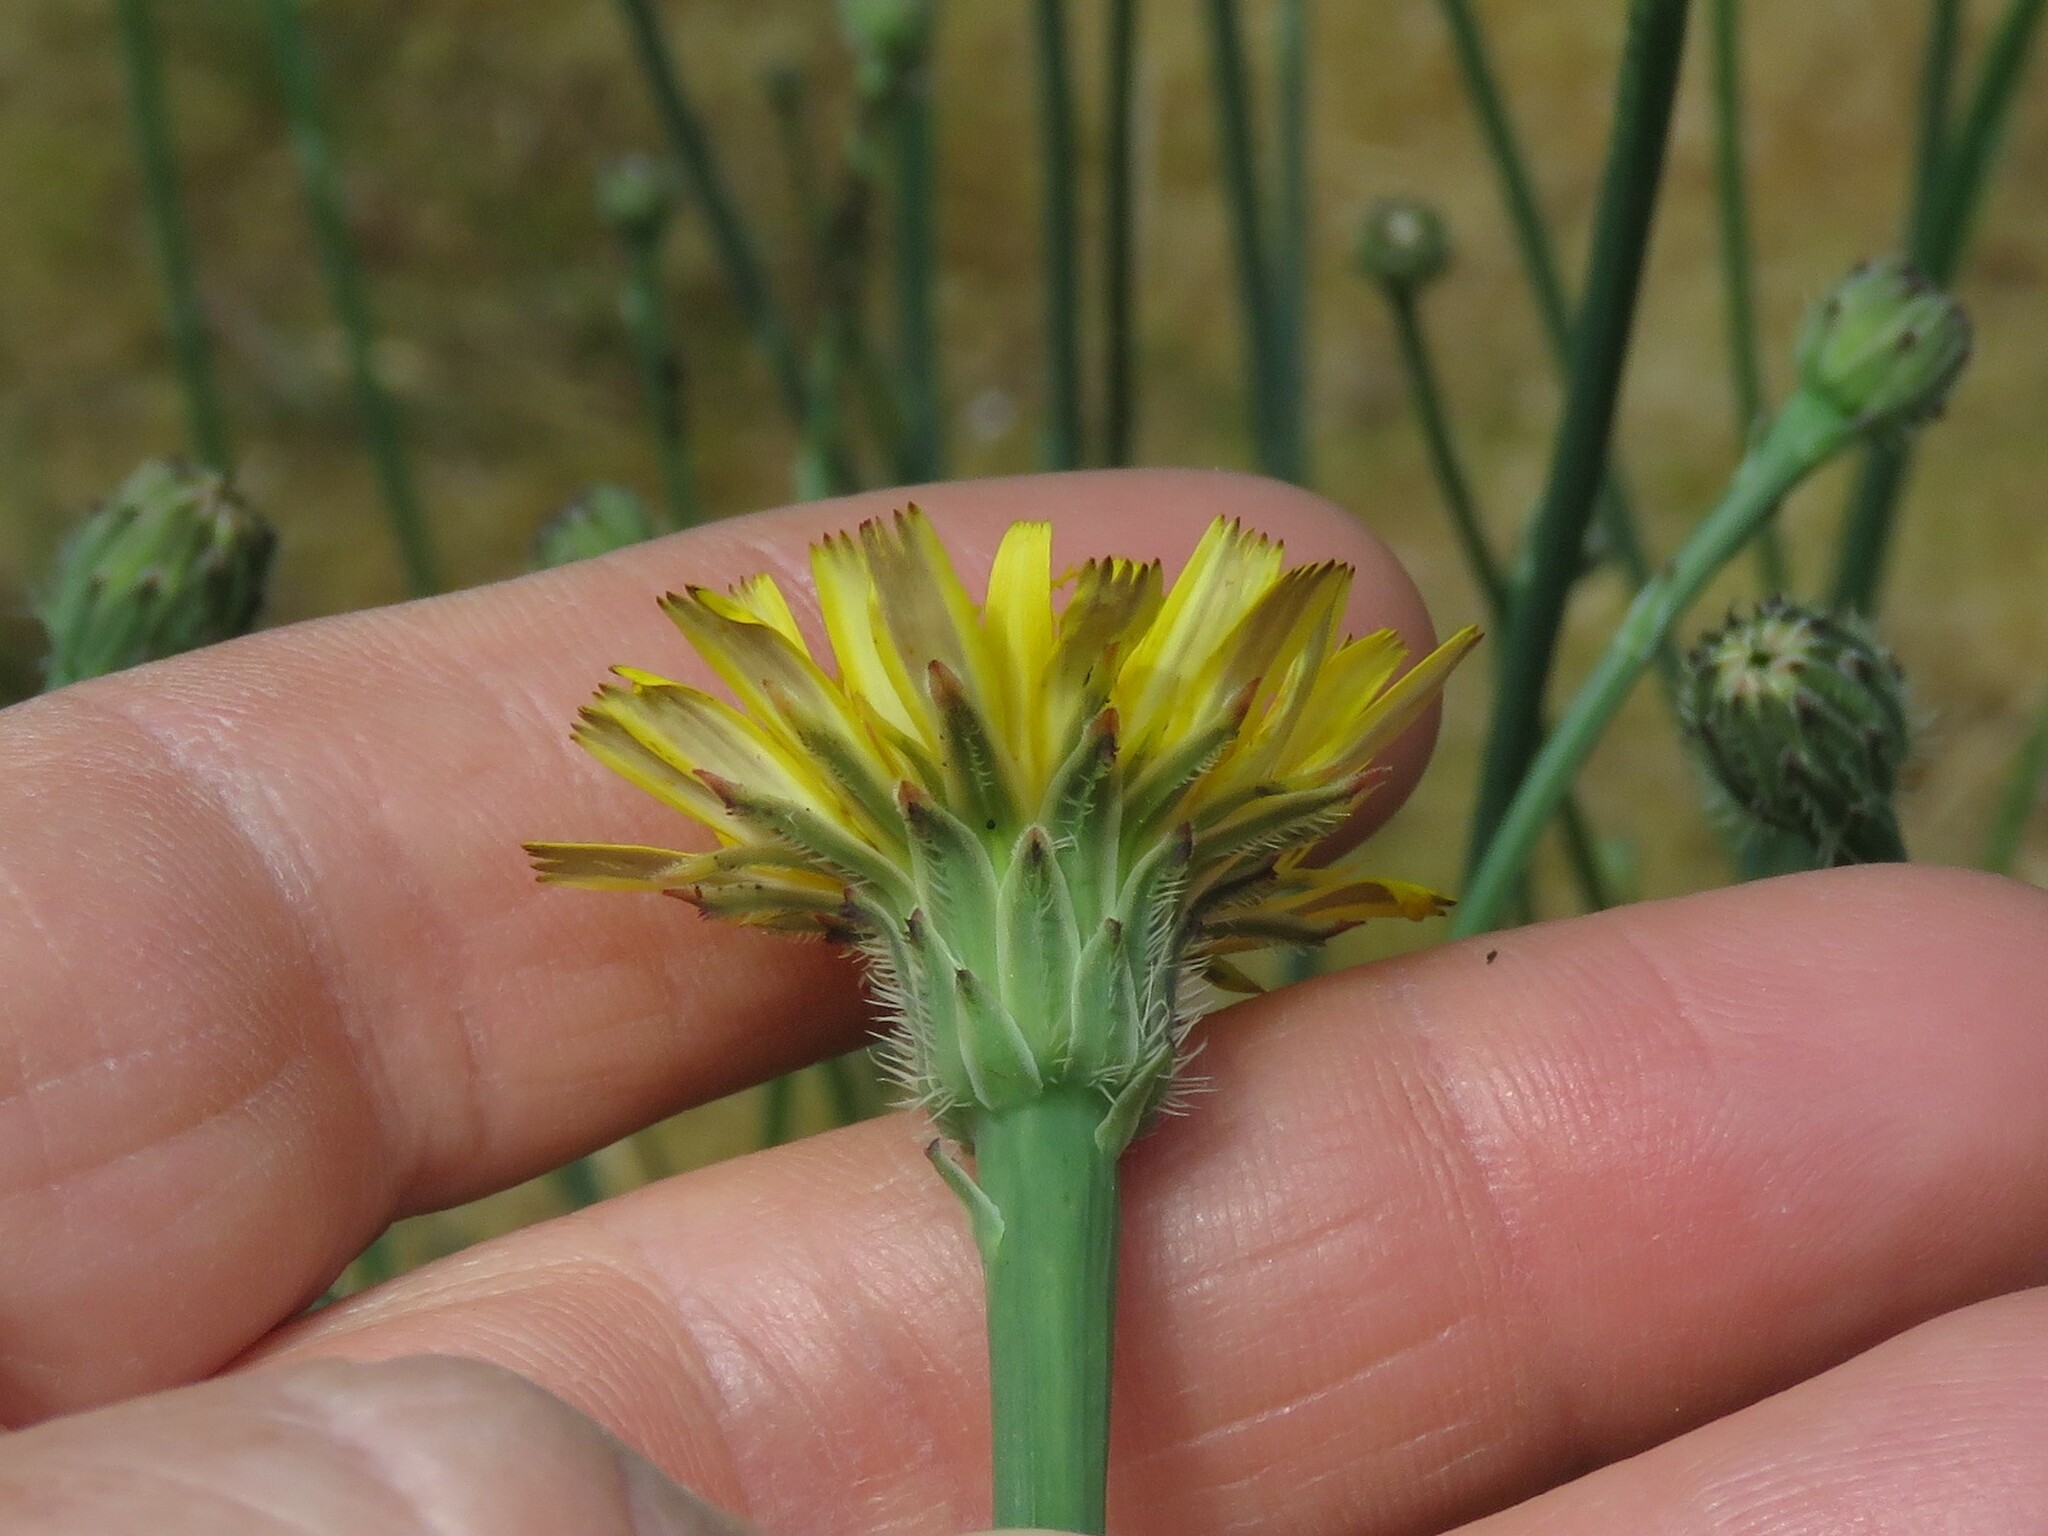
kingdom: Plantae
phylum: Tracheophyta
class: Magnoliopsida
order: Asterales
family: Asteraceae
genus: Hypochaeris
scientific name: Hypochaeris radicata
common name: Flatweed
